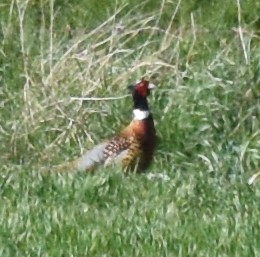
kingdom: Animalia
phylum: Chordata
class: Aves
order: Galliformes
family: Phasianidae
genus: Phasianus
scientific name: Phasianus colchicus
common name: Common pheasant
